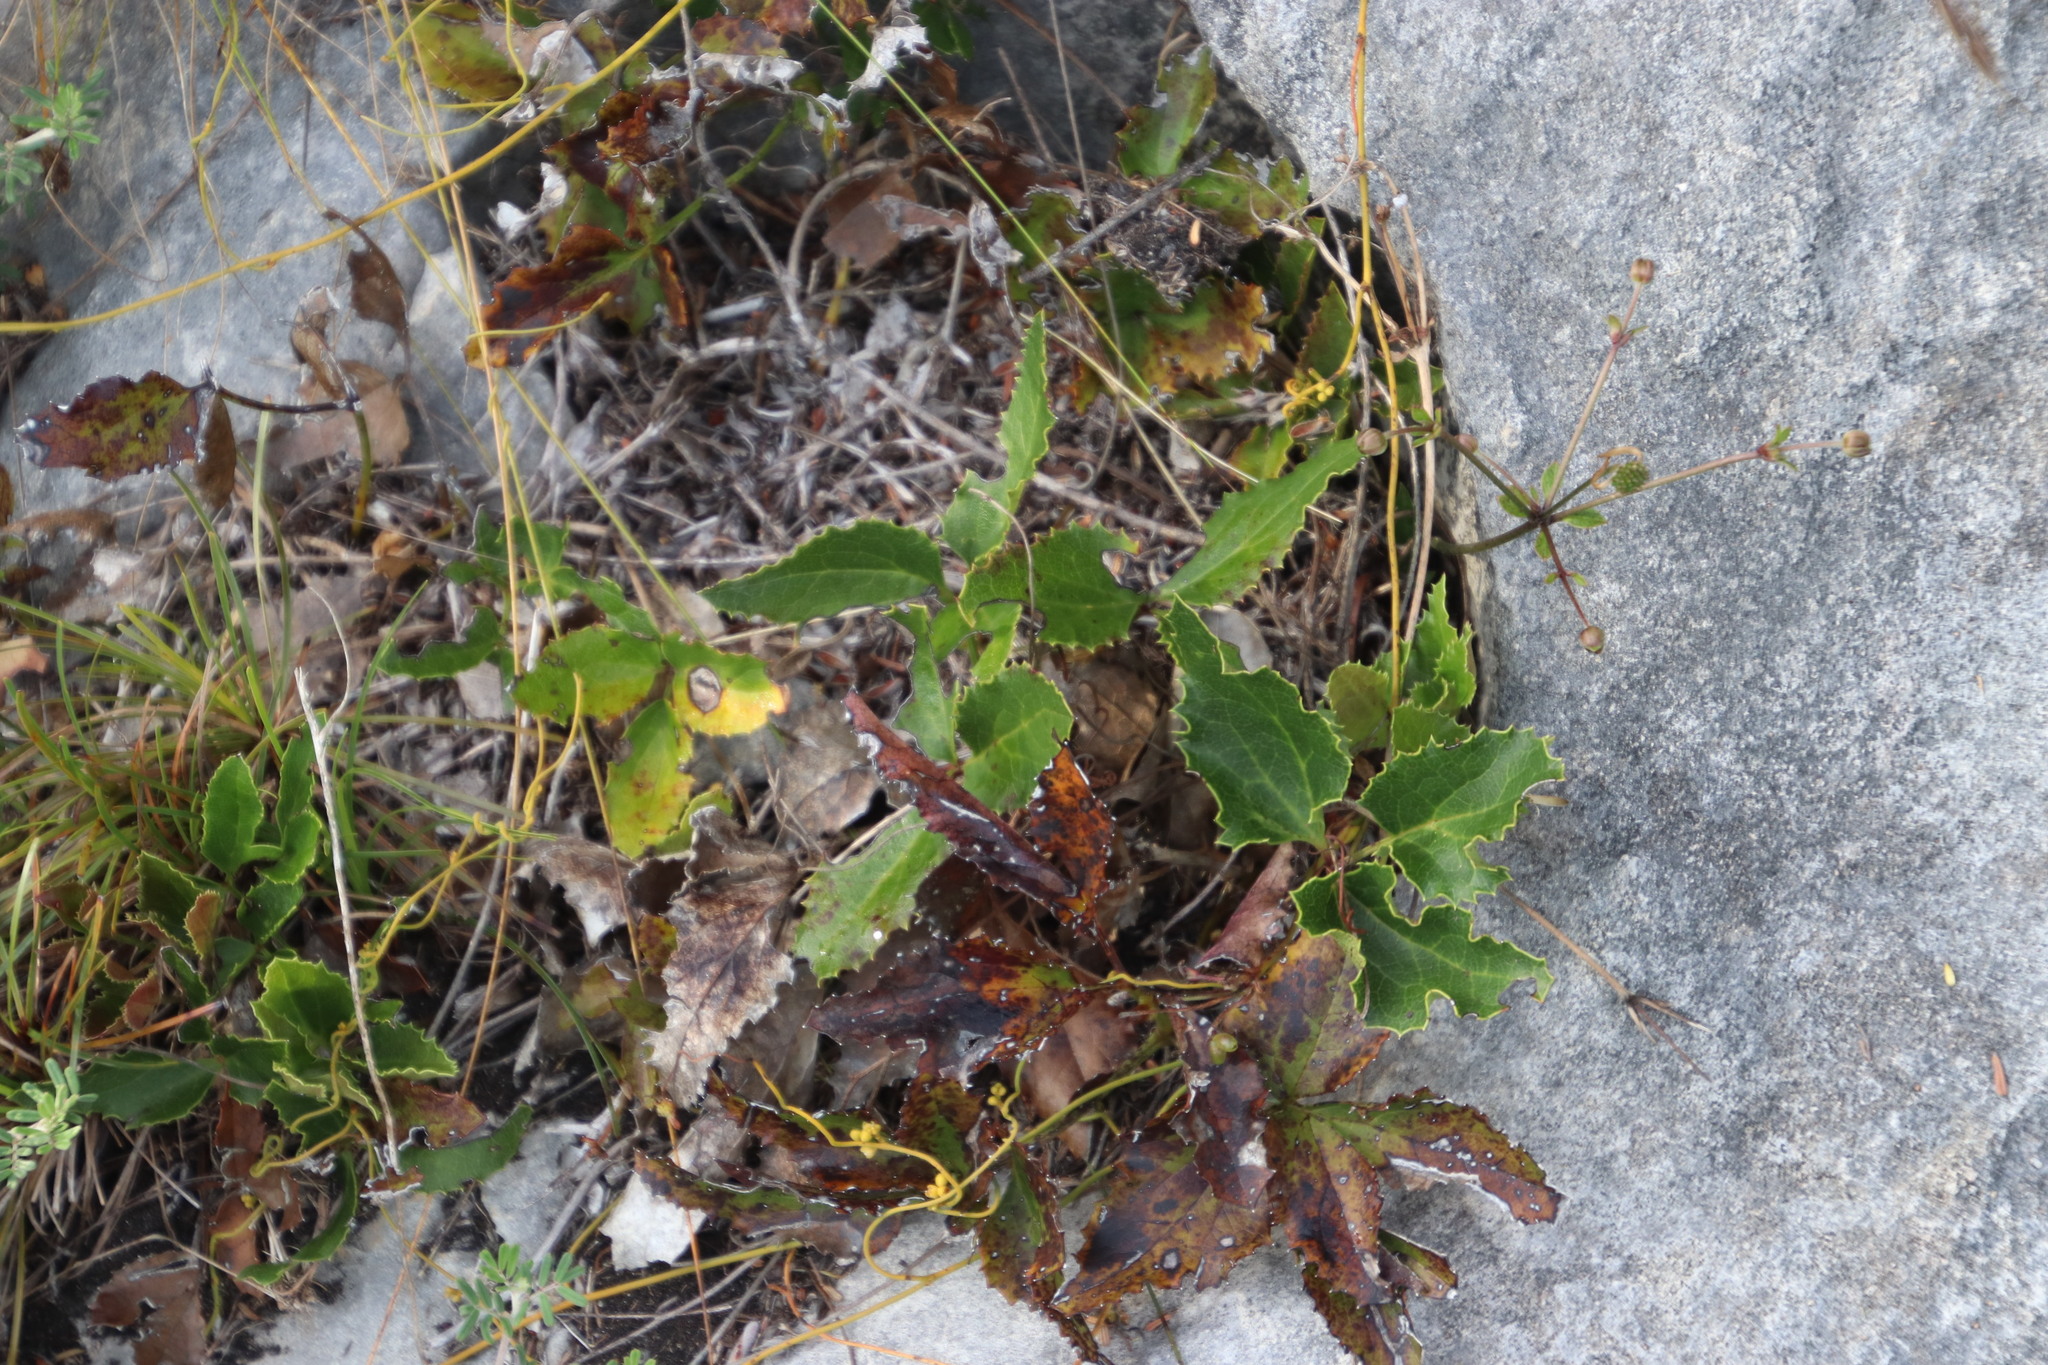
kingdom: Plantae
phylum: Tracheophyta
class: Magnoliopsida
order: Ranunculales
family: Ranunculaceae
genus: Knowltonia
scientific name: Knowltonia vesicatoria
